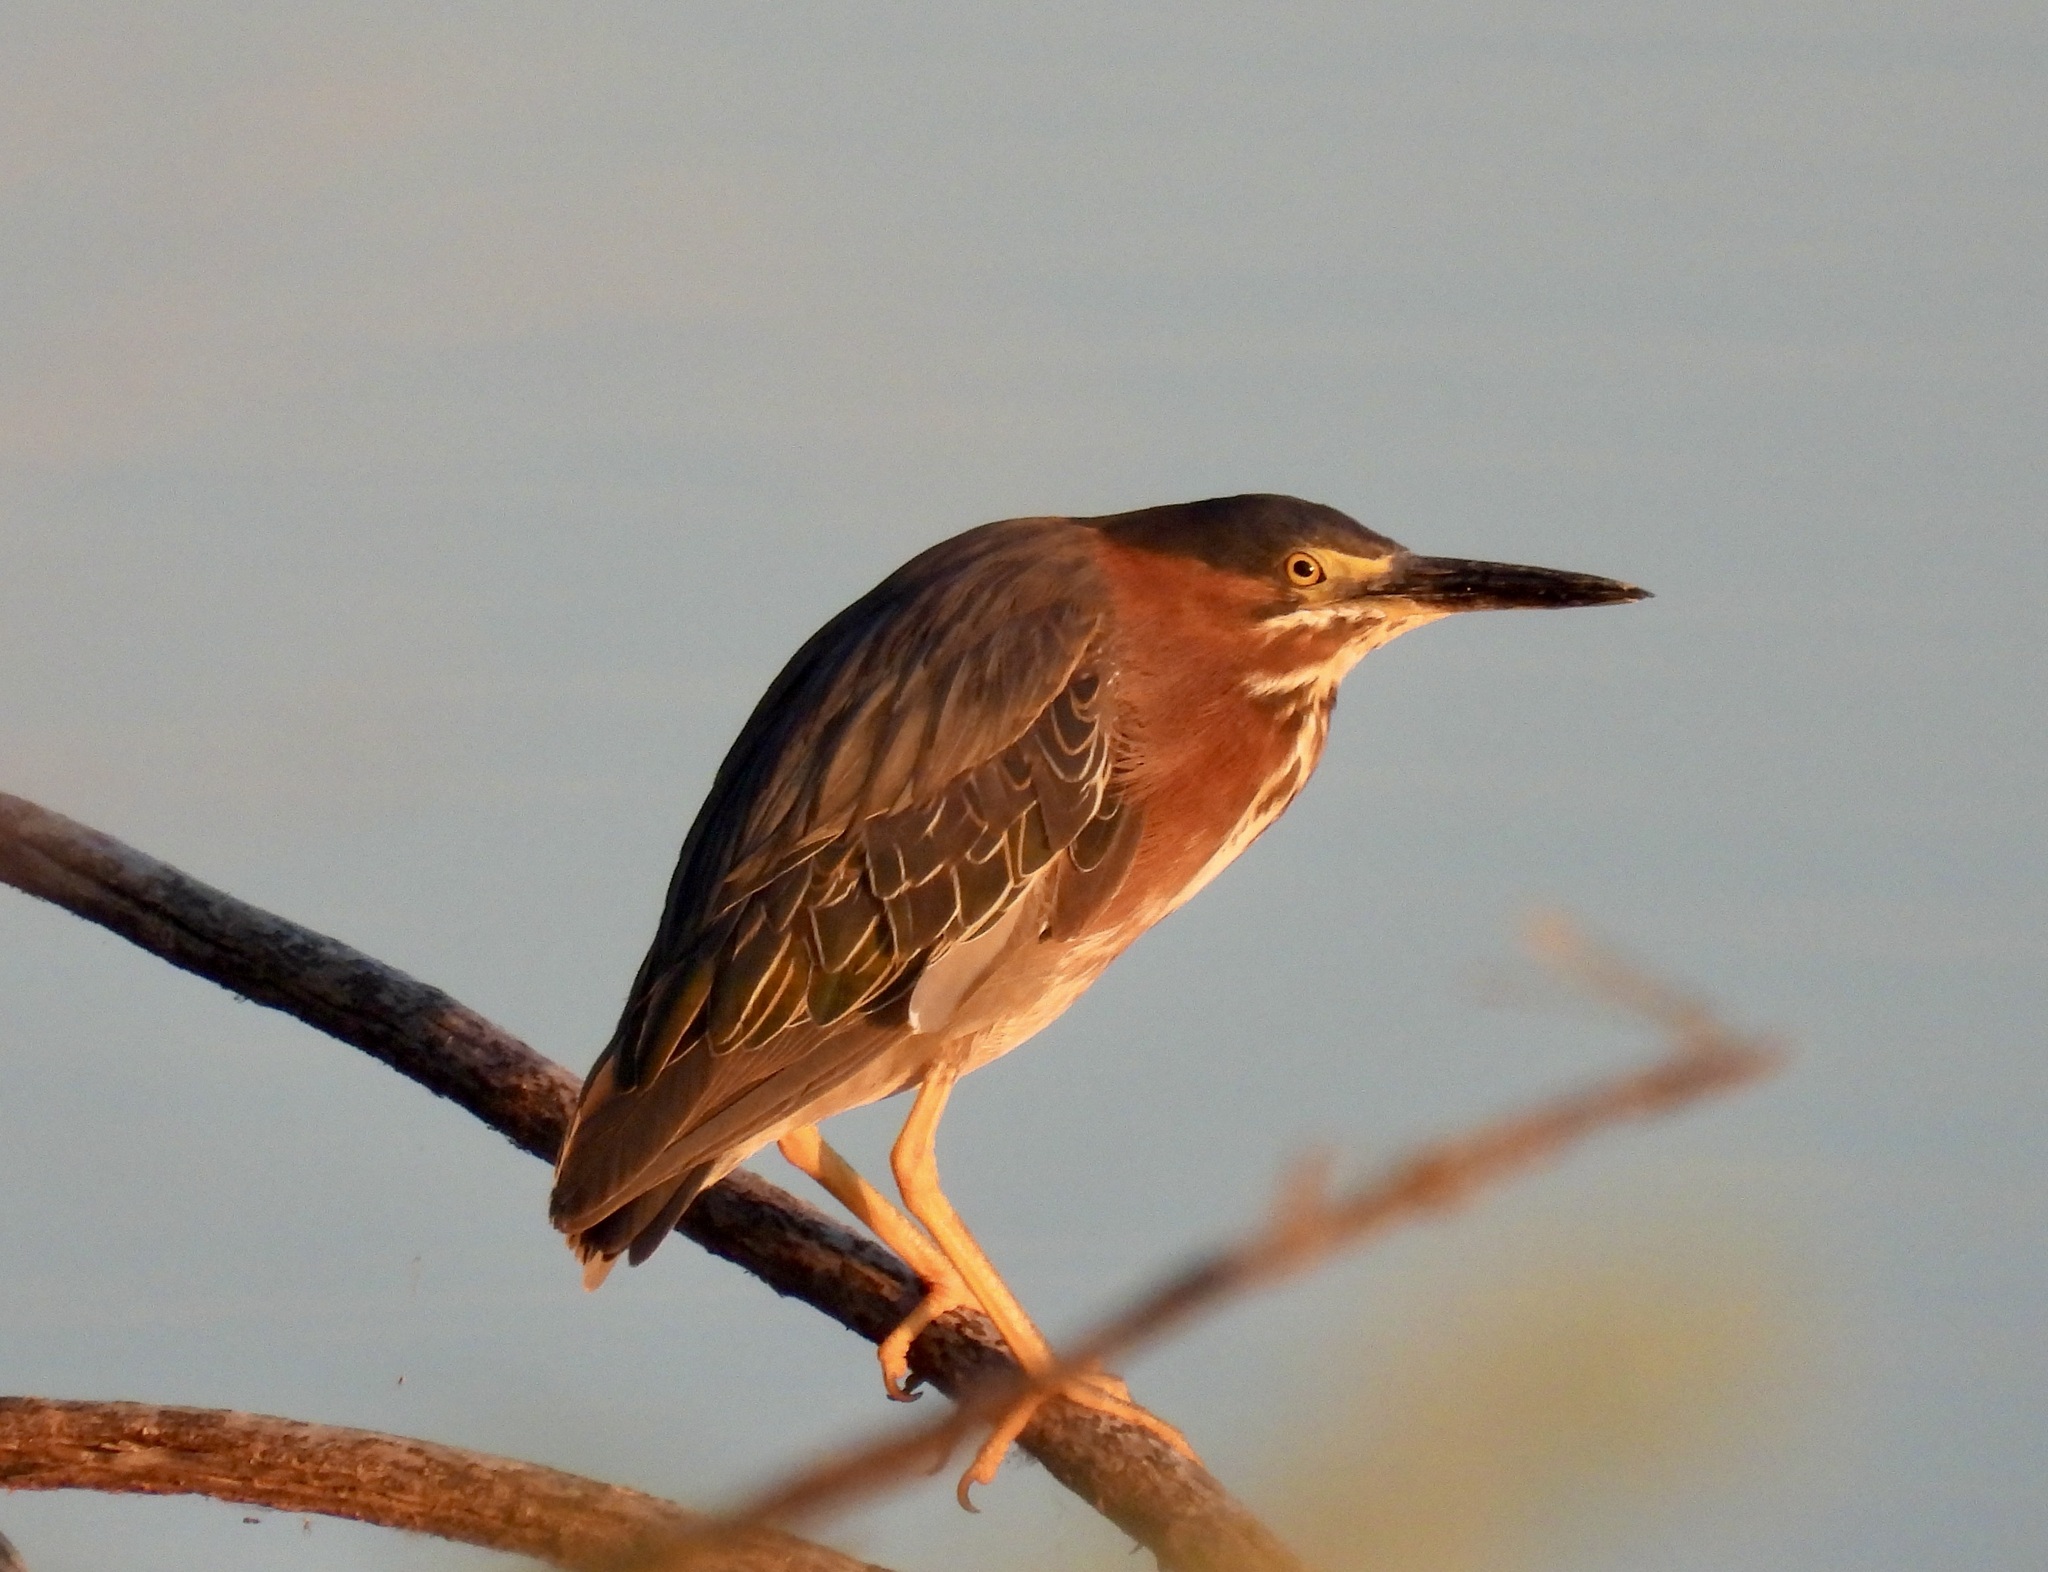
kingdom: Animalia
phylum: Chordata
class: Aves
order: Pelecaniformes
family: Ardeidae
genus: Butorides
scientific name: Butorides virescens
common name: Green heron
